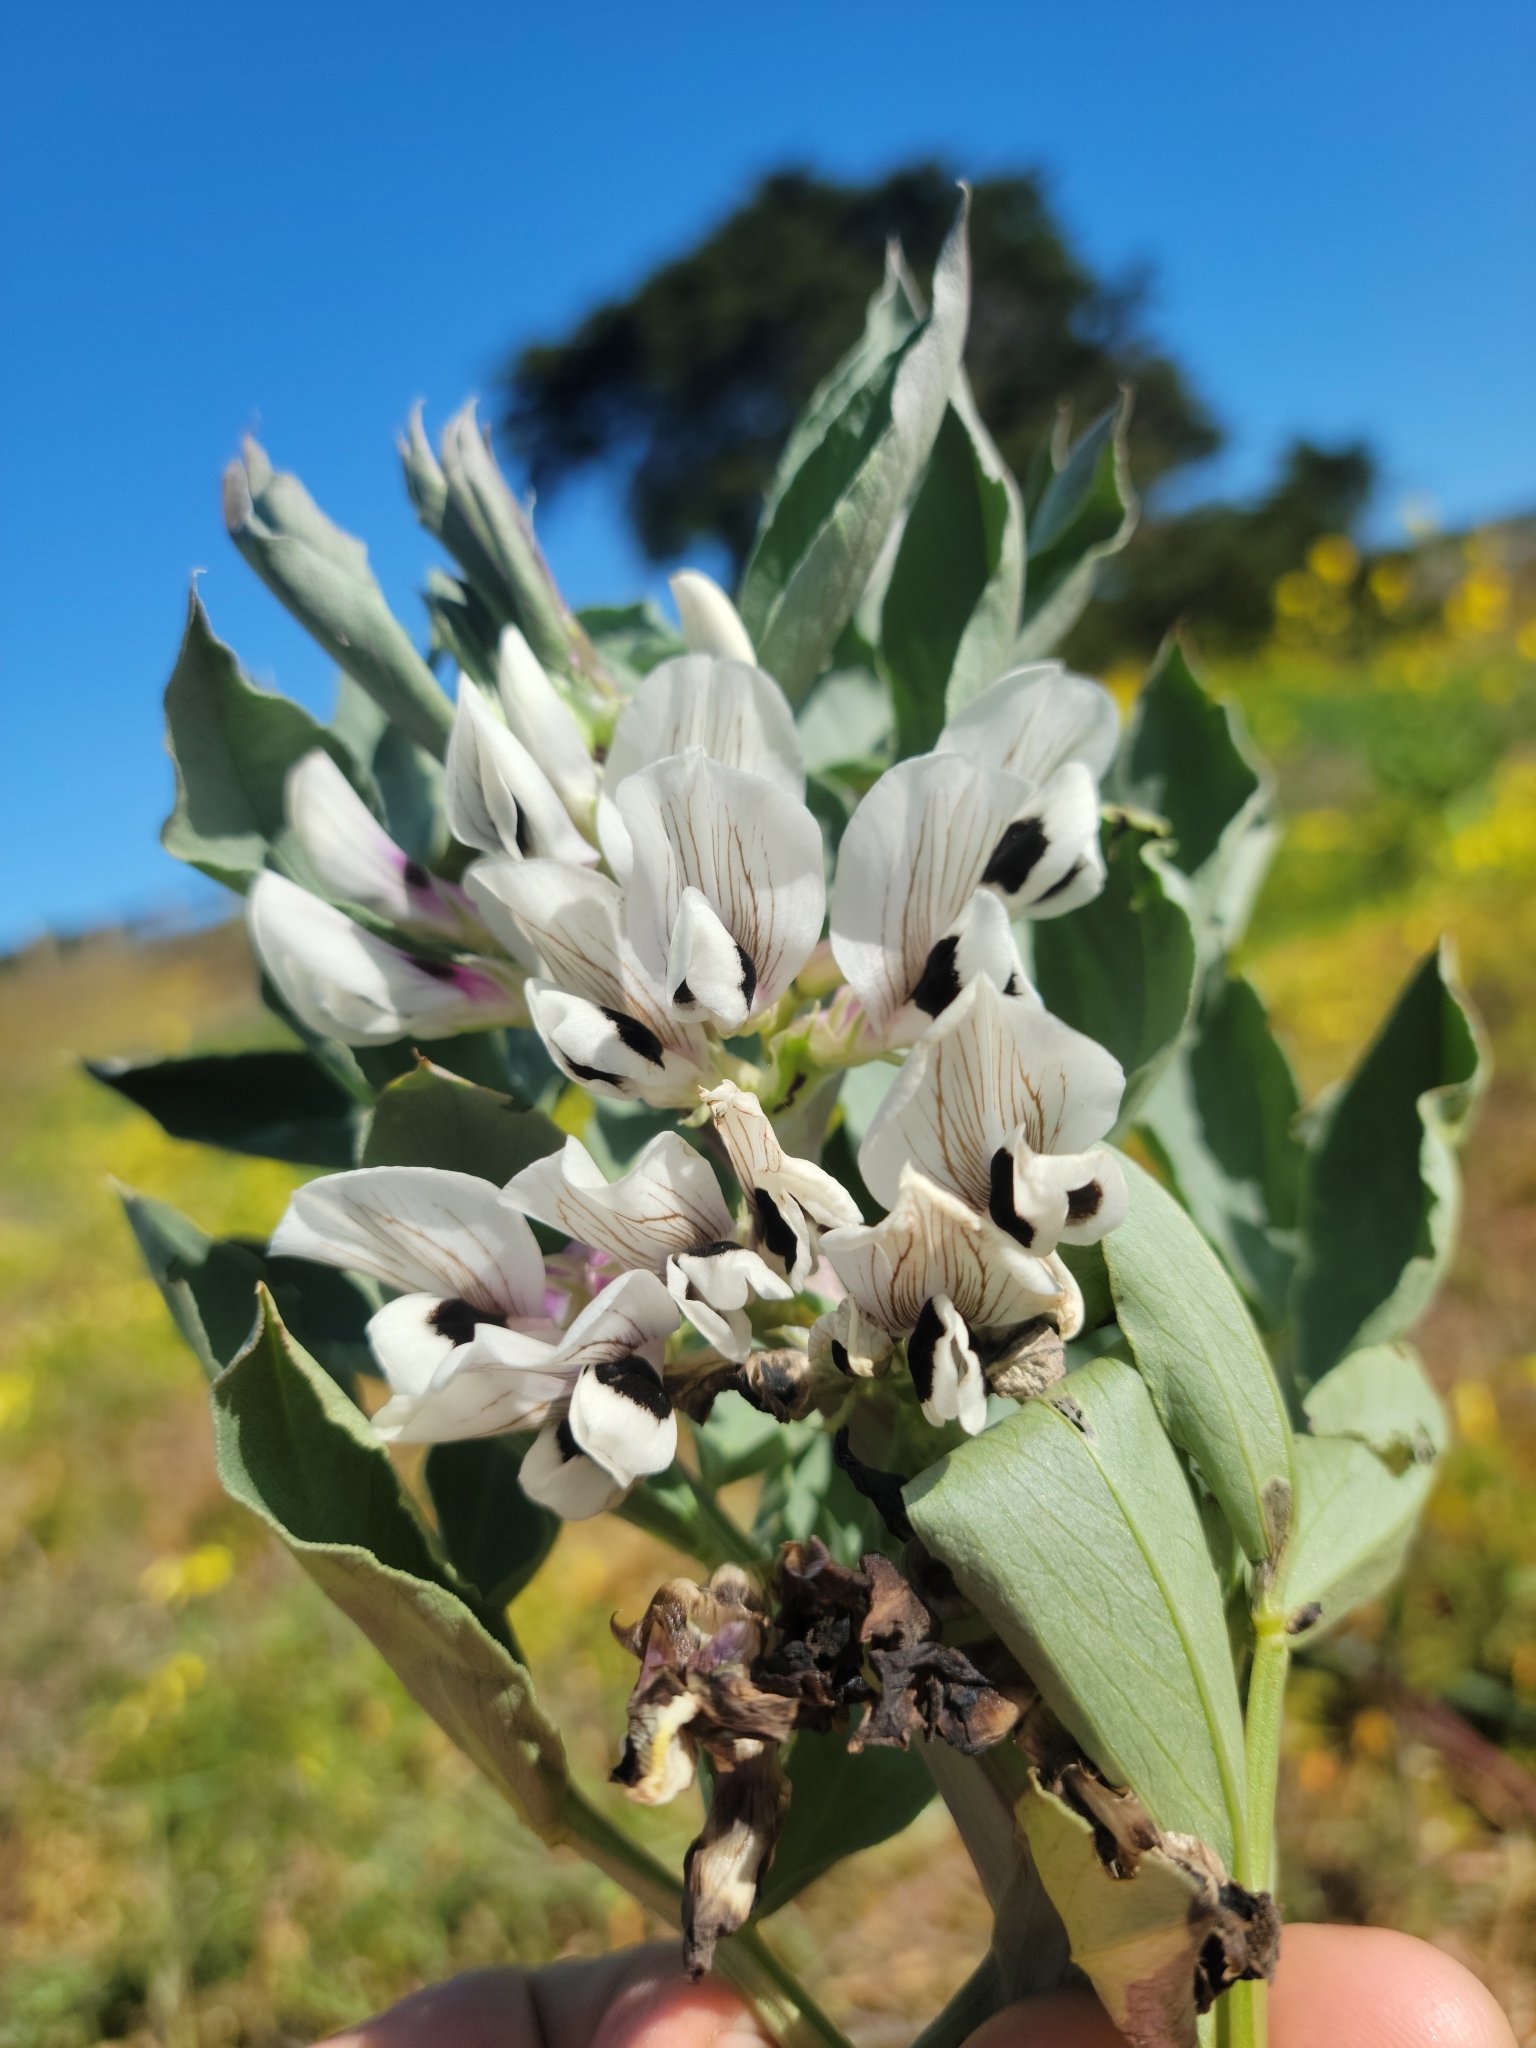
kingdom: Plantae
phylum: Tracheophyta
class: Magnoliopsida
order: Fabales
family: Fabaceae
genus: Vicia
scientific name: Vicia faba
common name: Broad bean
